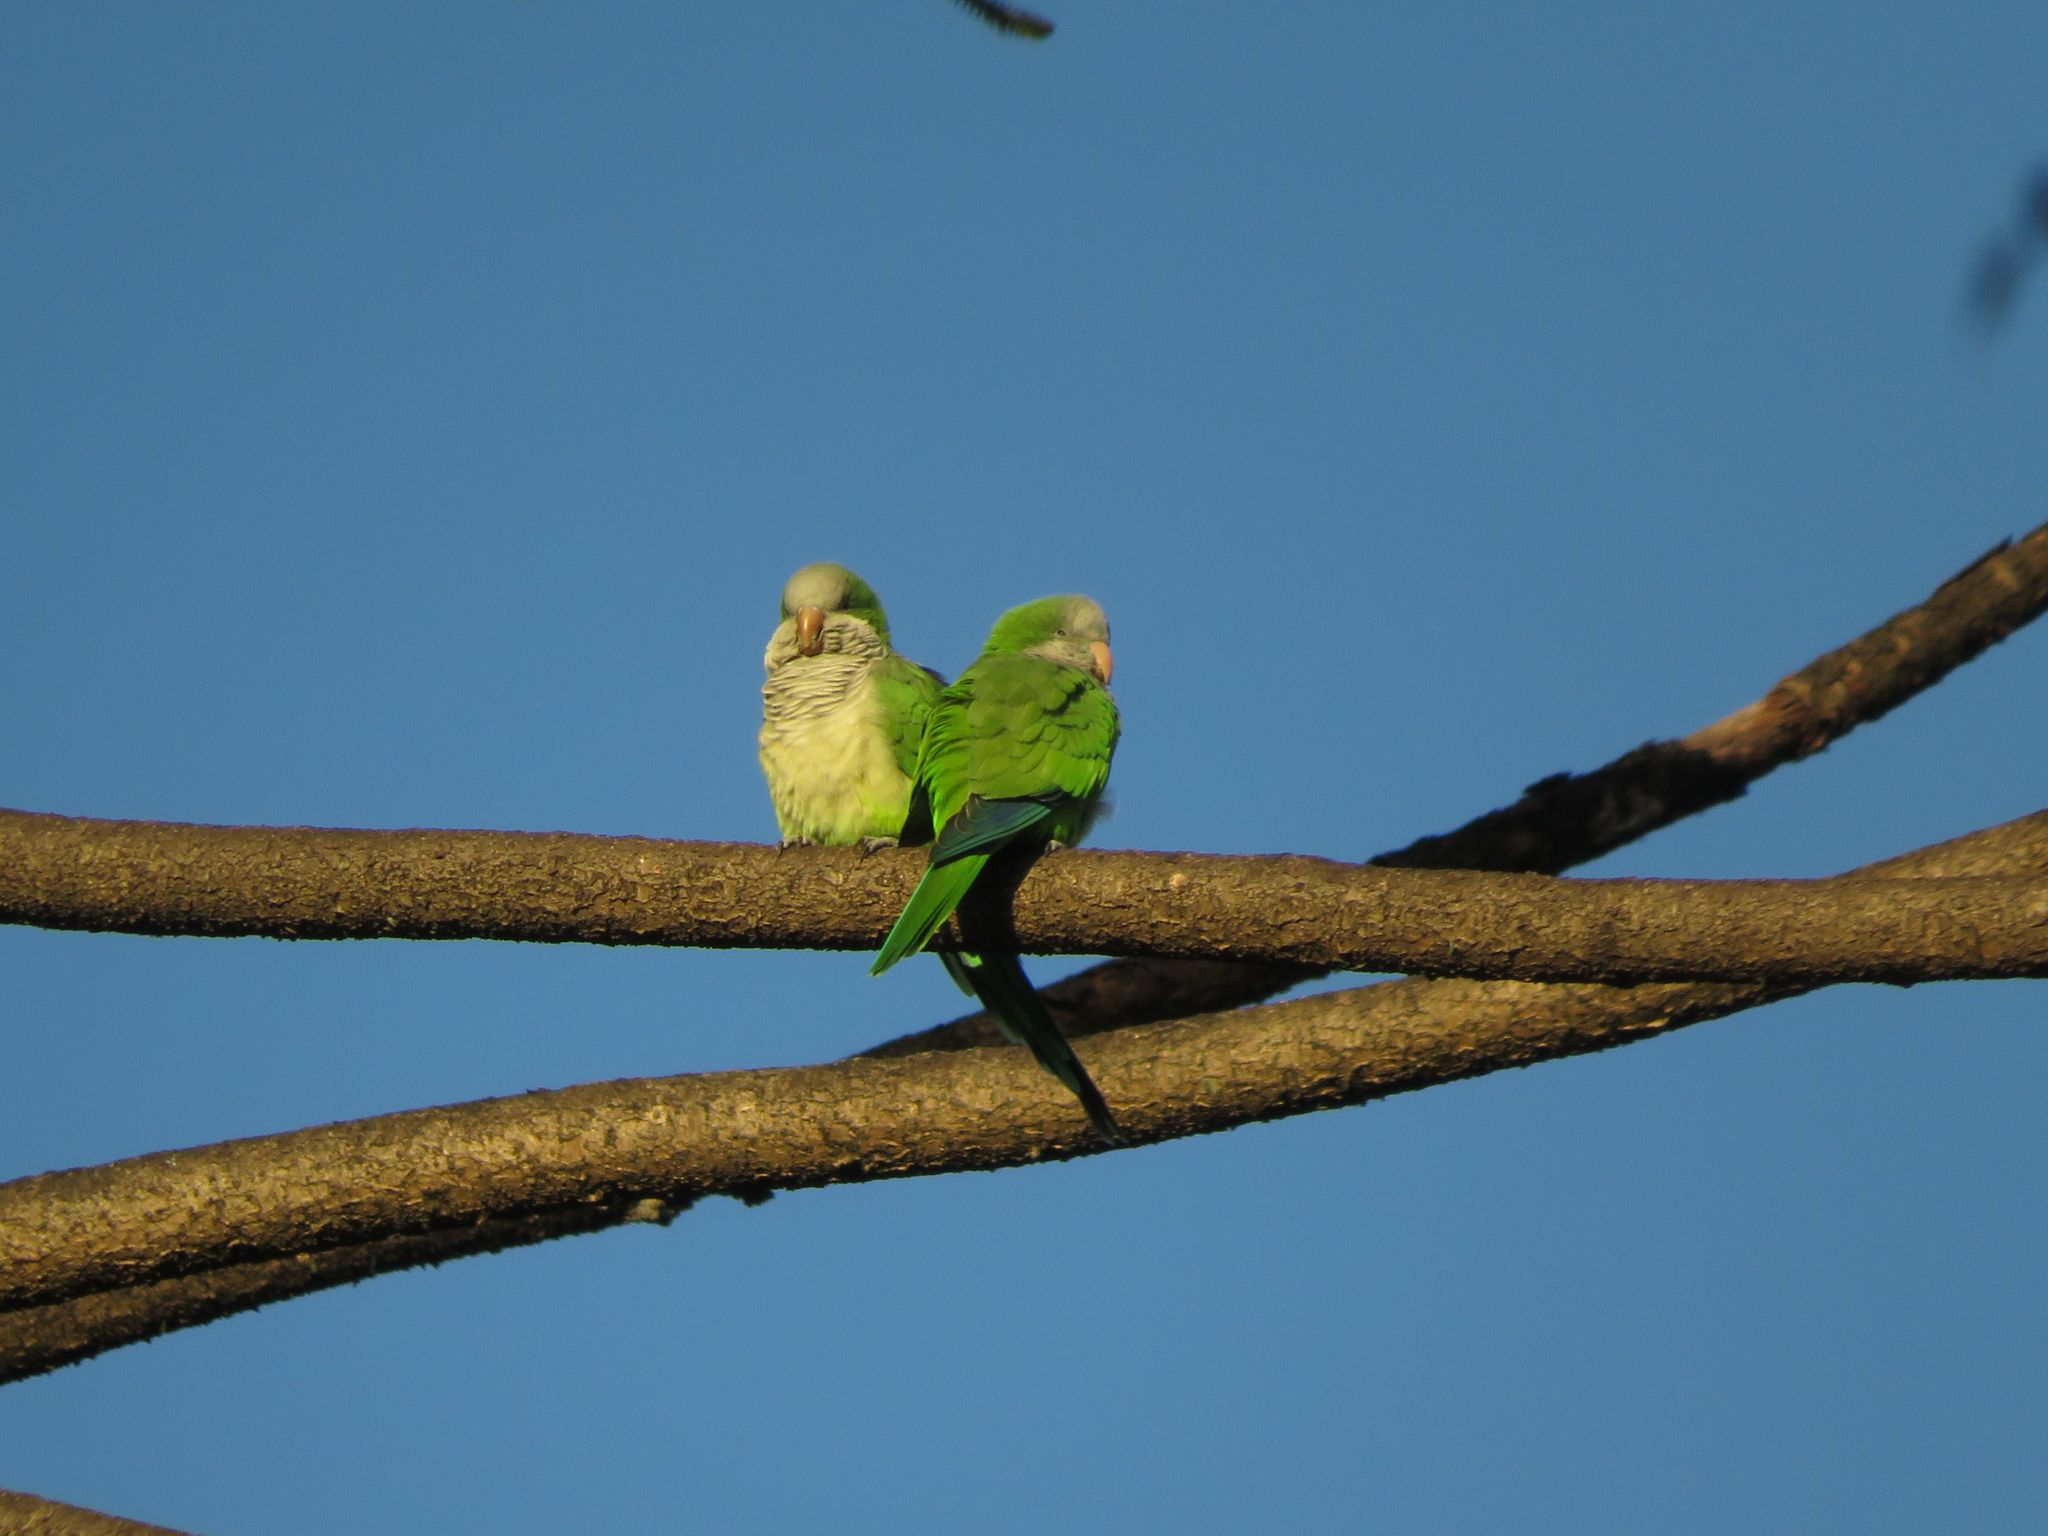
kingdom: Animalia
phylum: Chordata
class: Aves
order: Psittaciformes
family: Psittacidae
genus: Myiopsitta
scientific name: Myiopsitta monachus
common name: Monk parakeet
